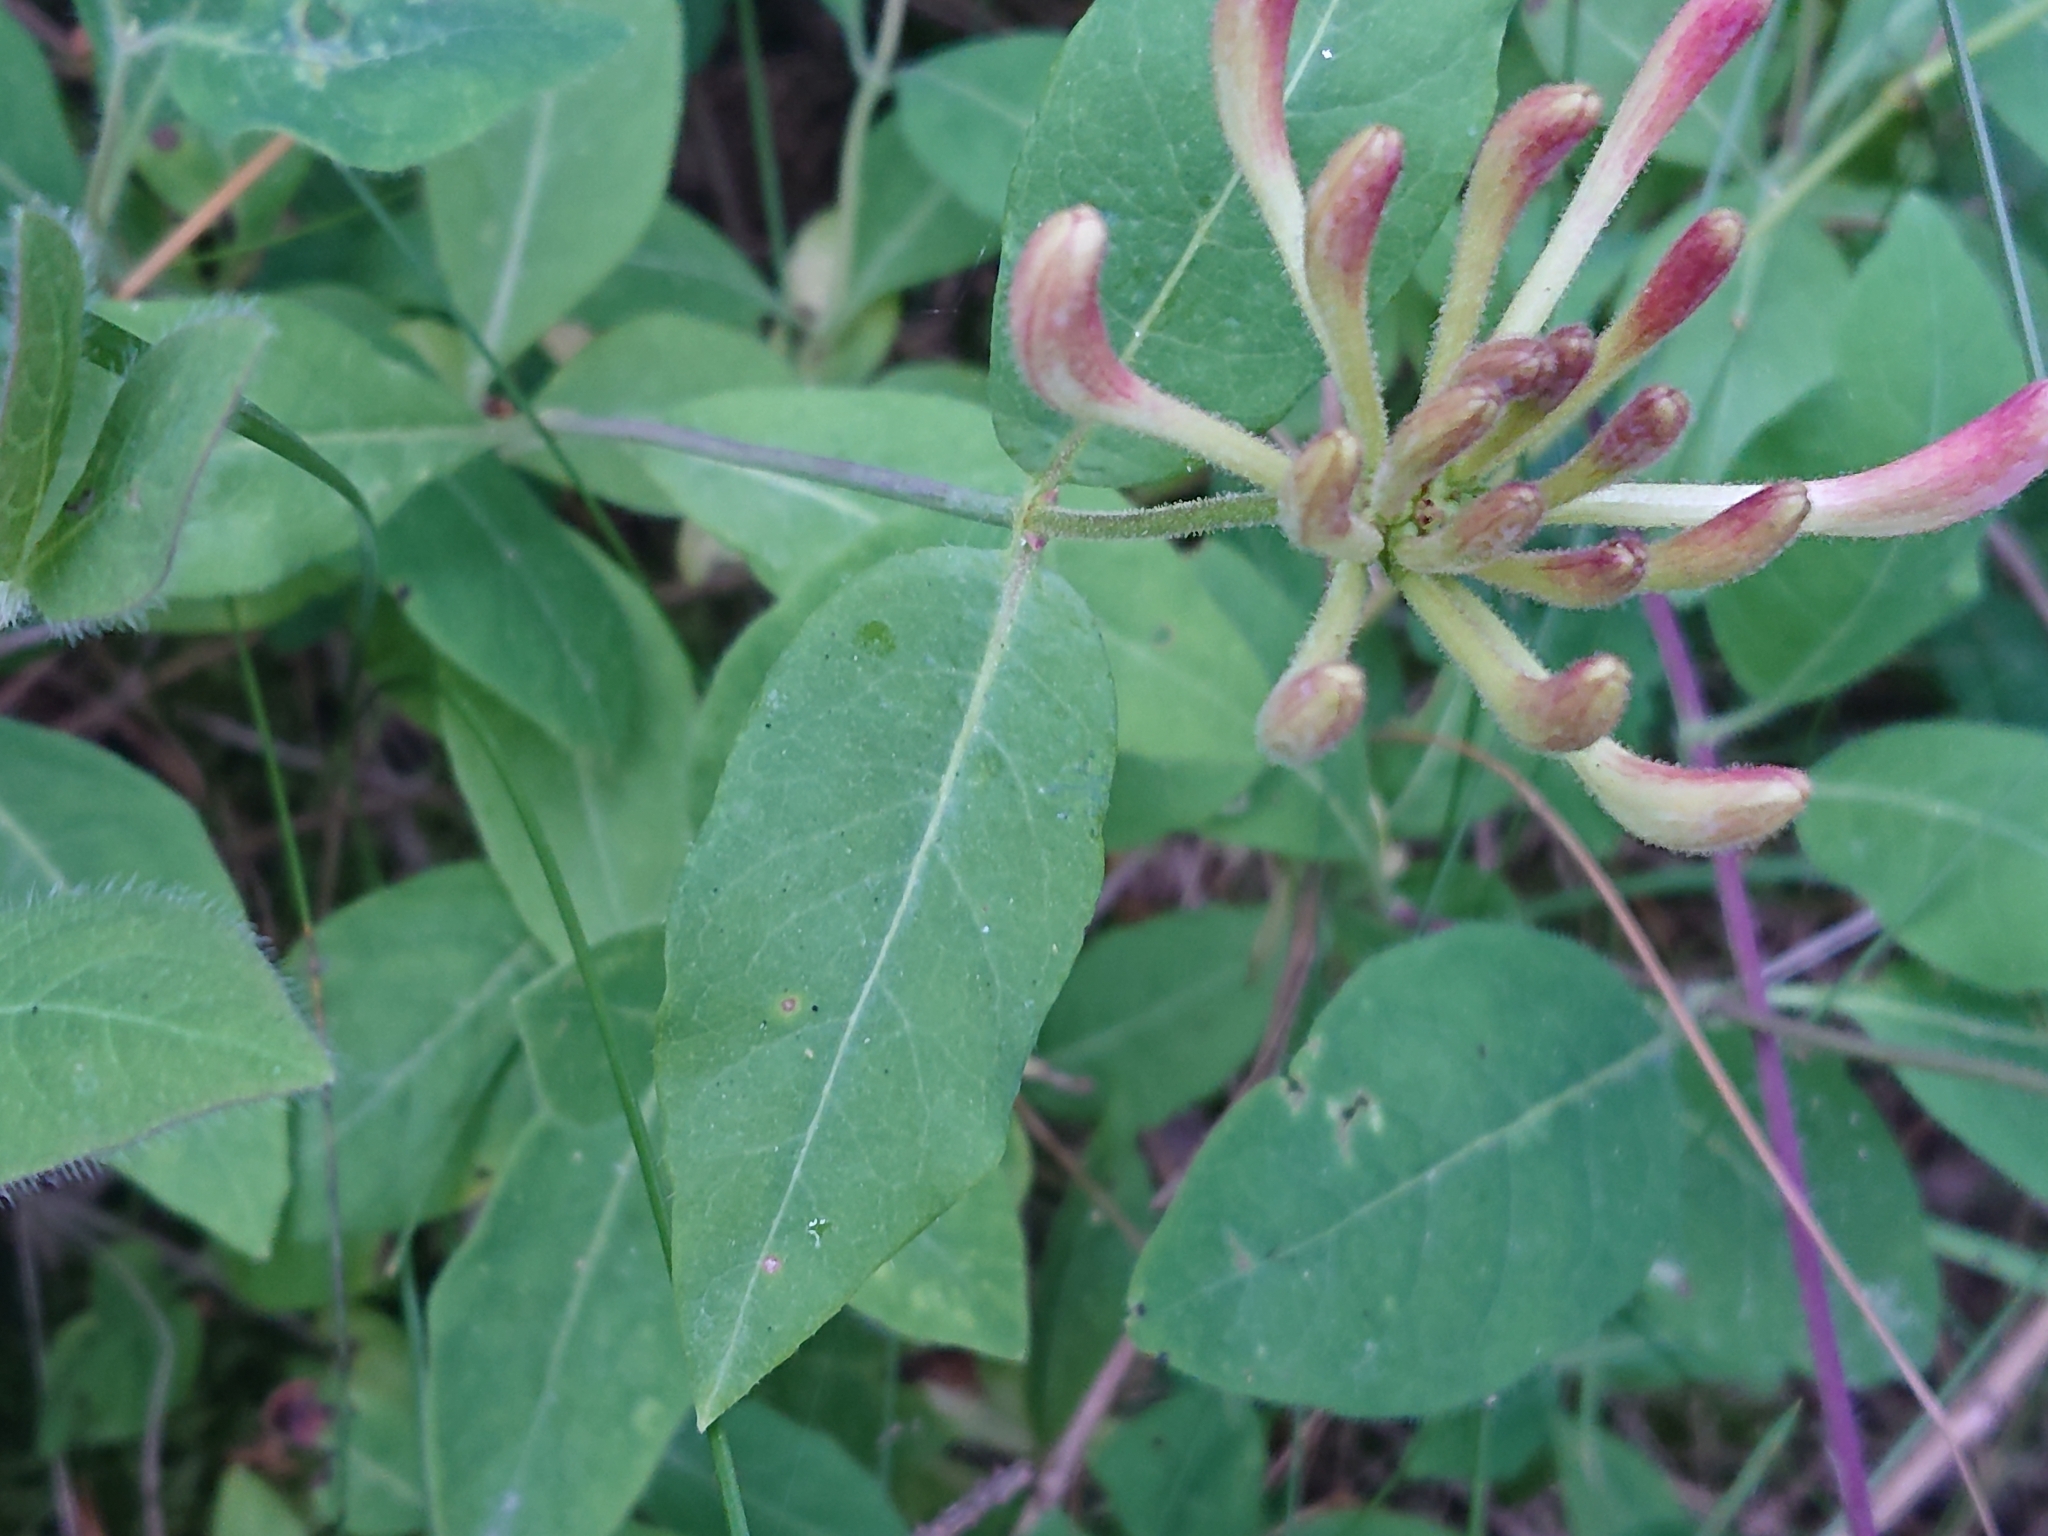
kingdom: Plantae
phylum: Tracheophyta
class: Magnoliopsida
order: Dipsacales
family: Caprifoliaceae
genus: Lonicera
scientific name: Lonicera periclymenum
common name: European honeysuckle
